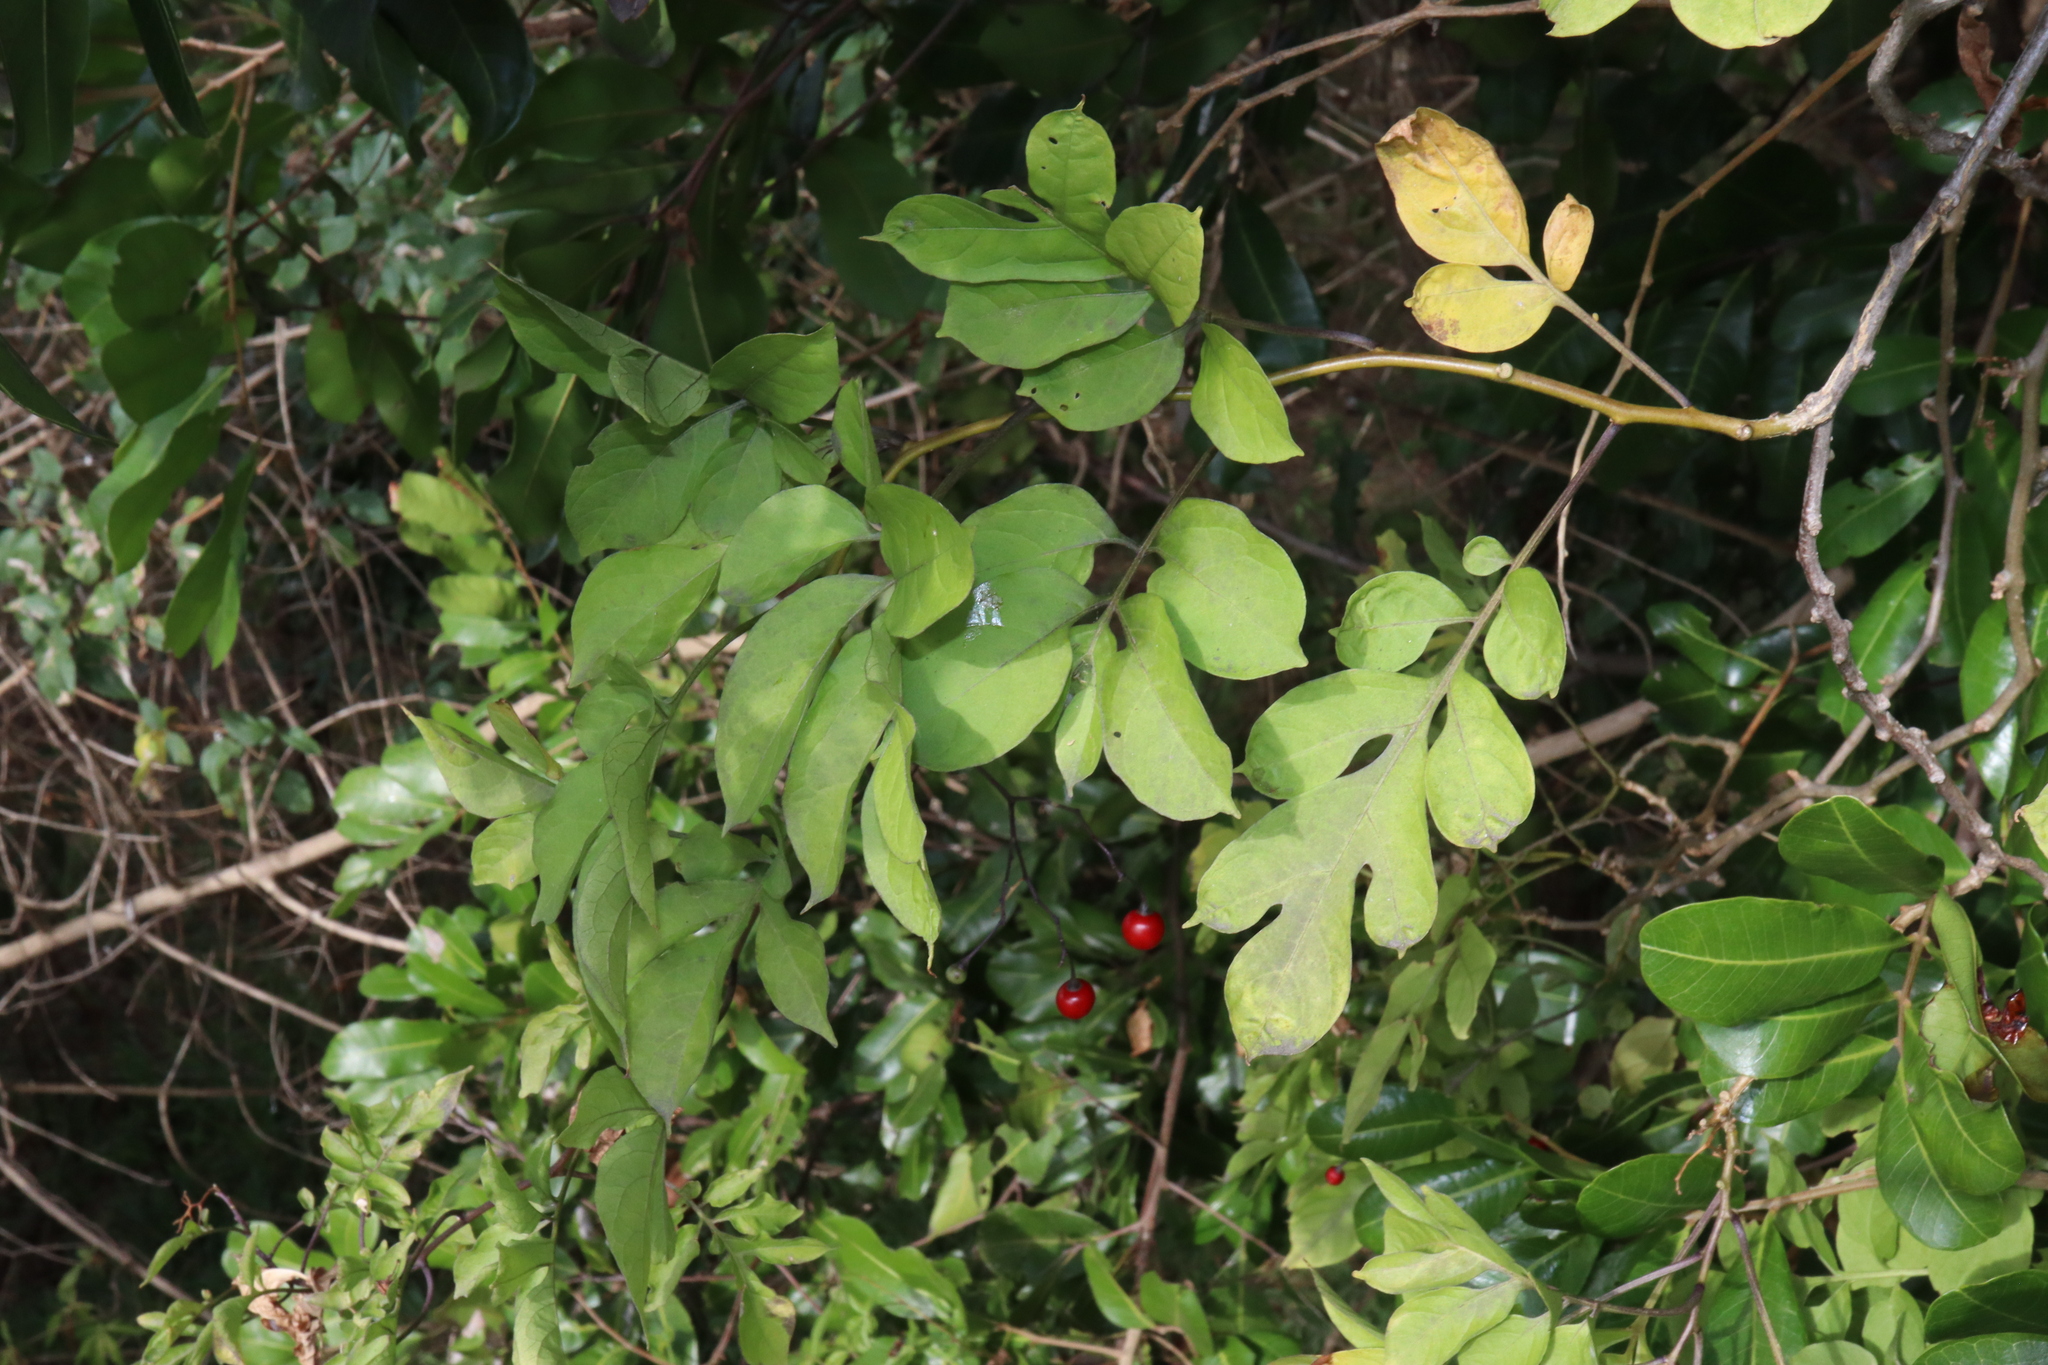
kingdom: Plantae
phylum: Tracheophyta
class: Magnoliopsida
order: Solanales
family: Solanaceae
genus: Solanum
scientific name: Solanum seaforthianum
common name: Brazilian nightshade
